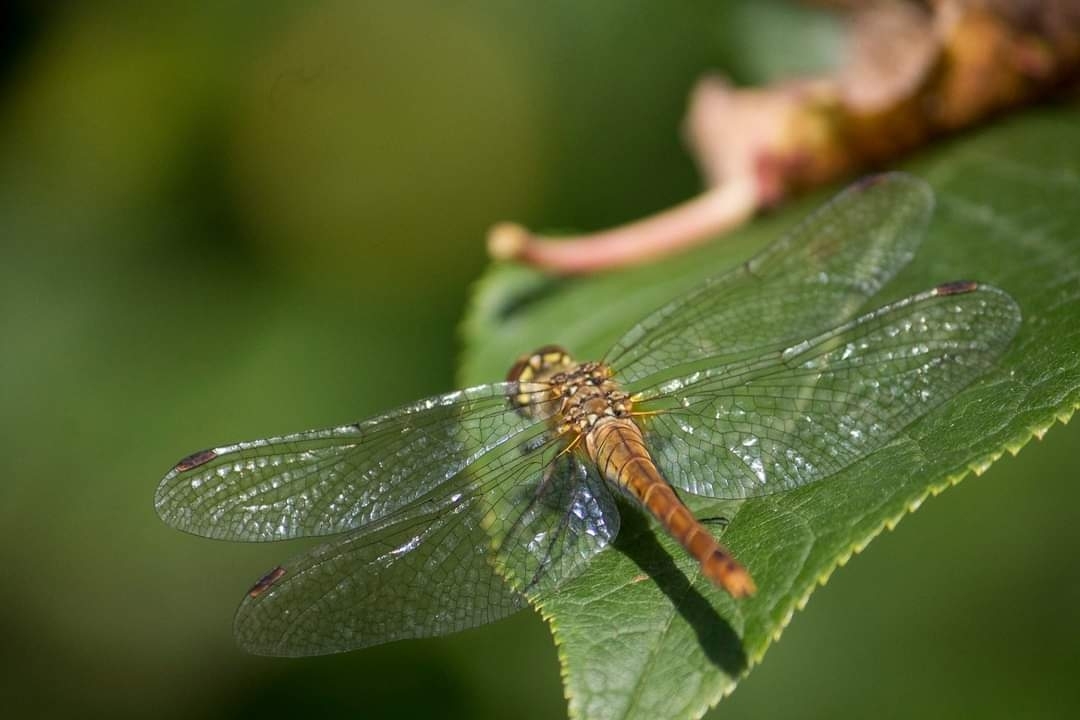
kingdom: Animalia
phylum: Arthropoda
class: Insecta
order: Odonata
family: Libellulidae
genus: Sympetrum
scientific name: Sympetrum sanguineum
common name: Ruddy darter
